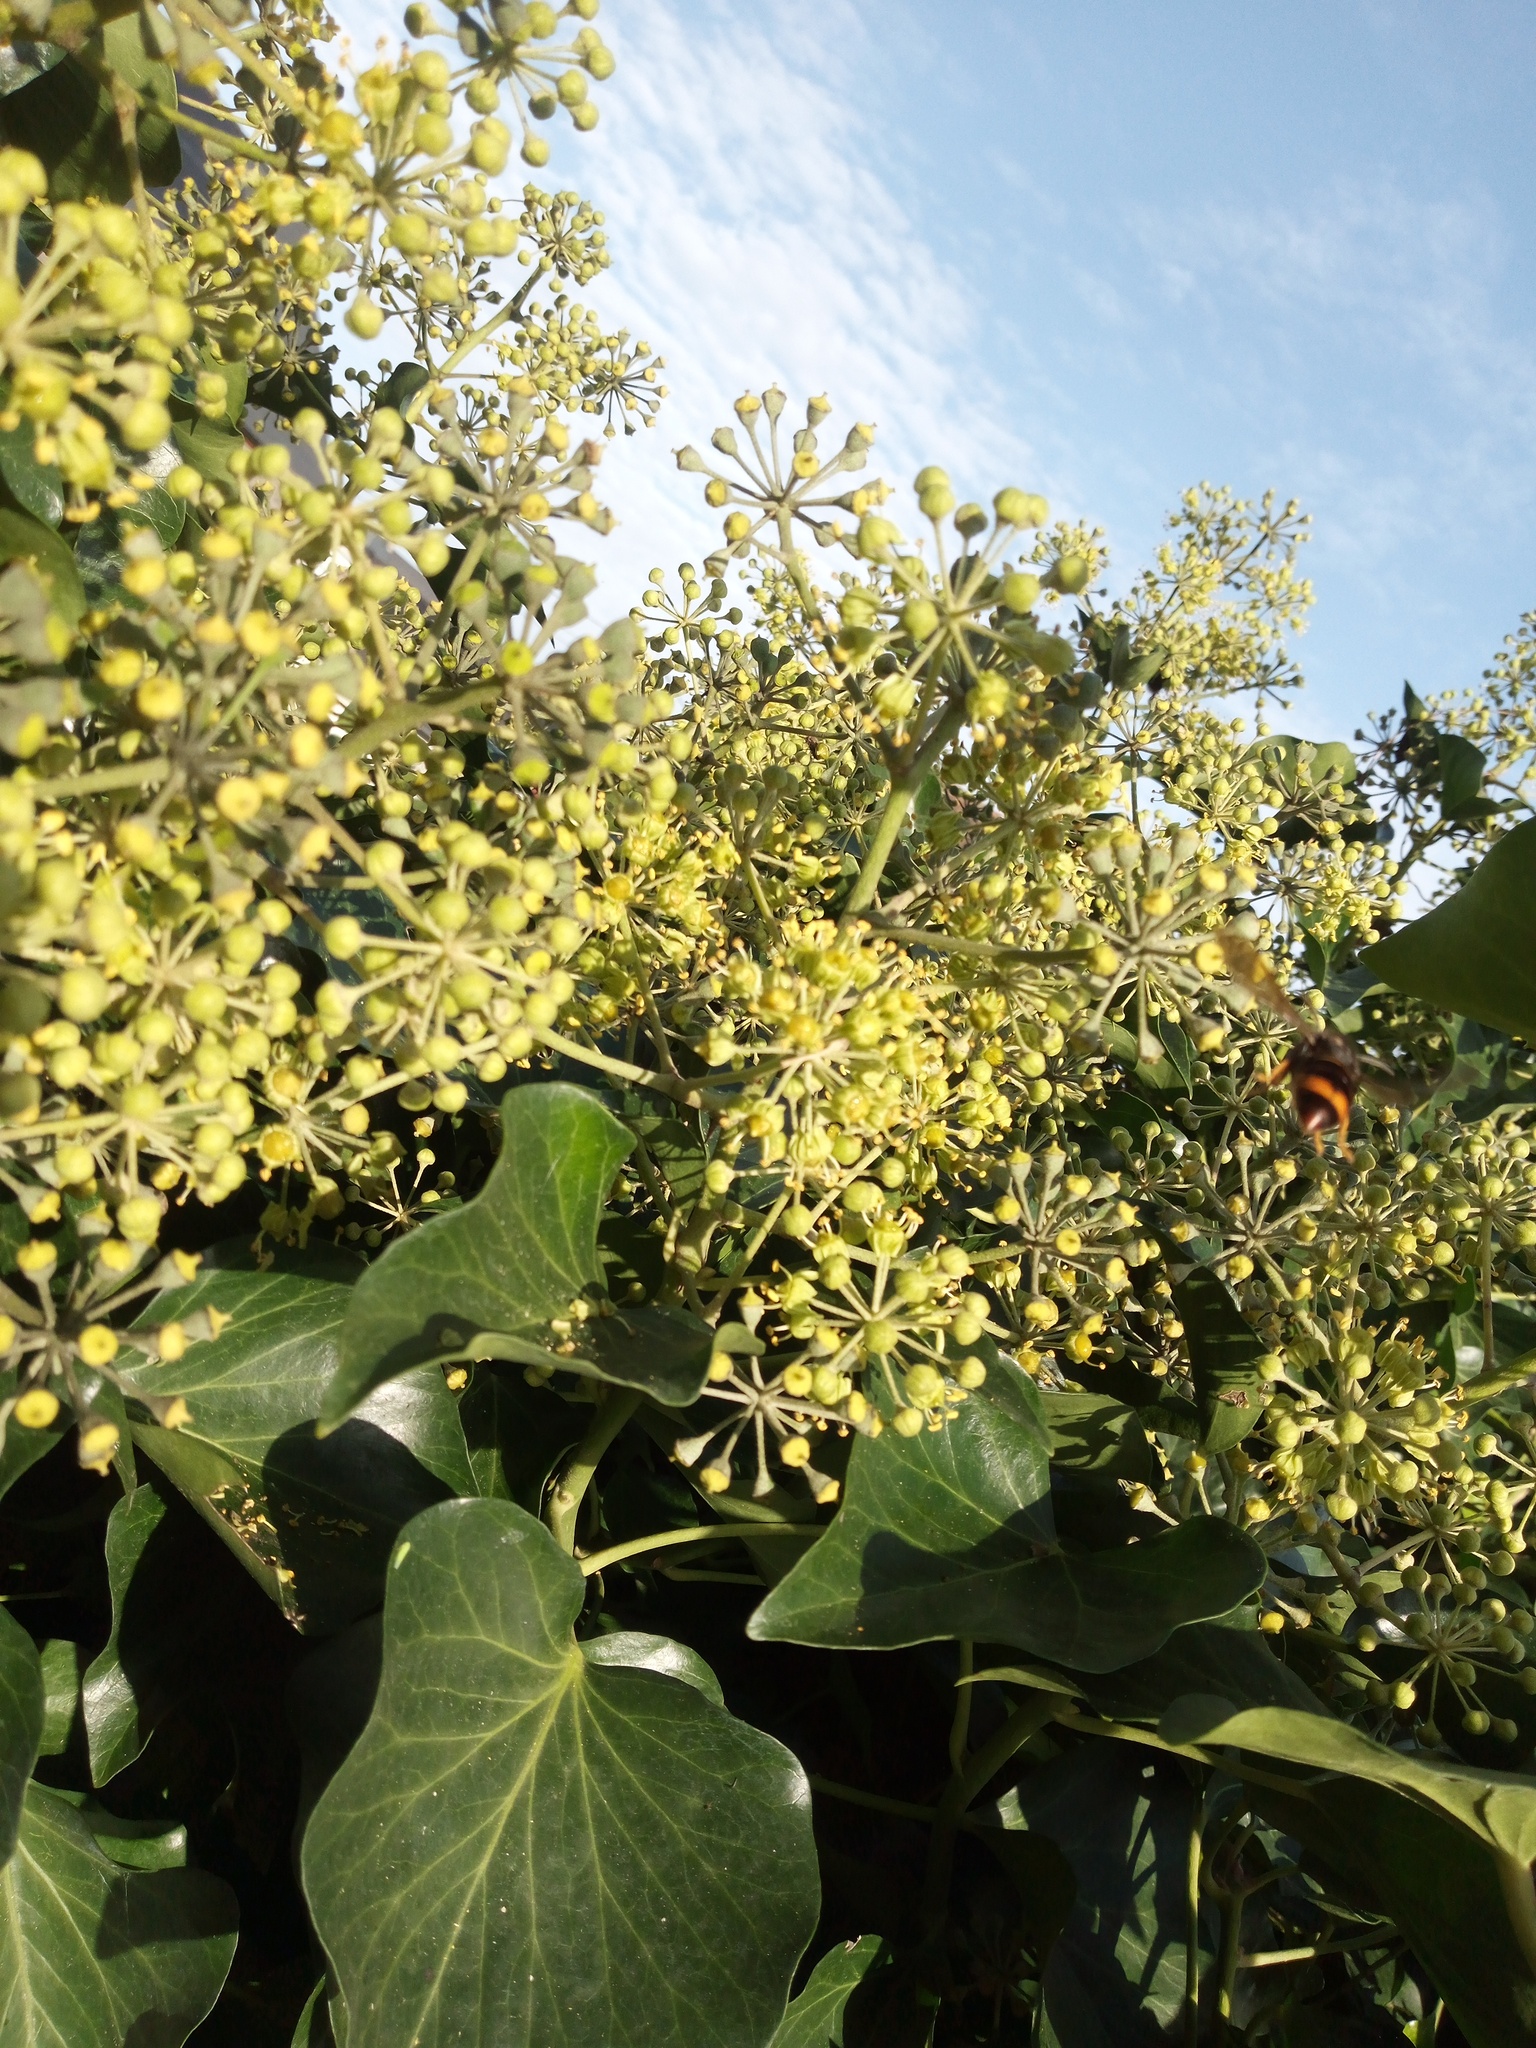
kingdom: Animalia
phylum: Arthropoda
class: Insecta
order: Hymenoptera
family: Vespidae
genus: Vespa
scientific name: Vespa velutina
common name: Asian hornet
